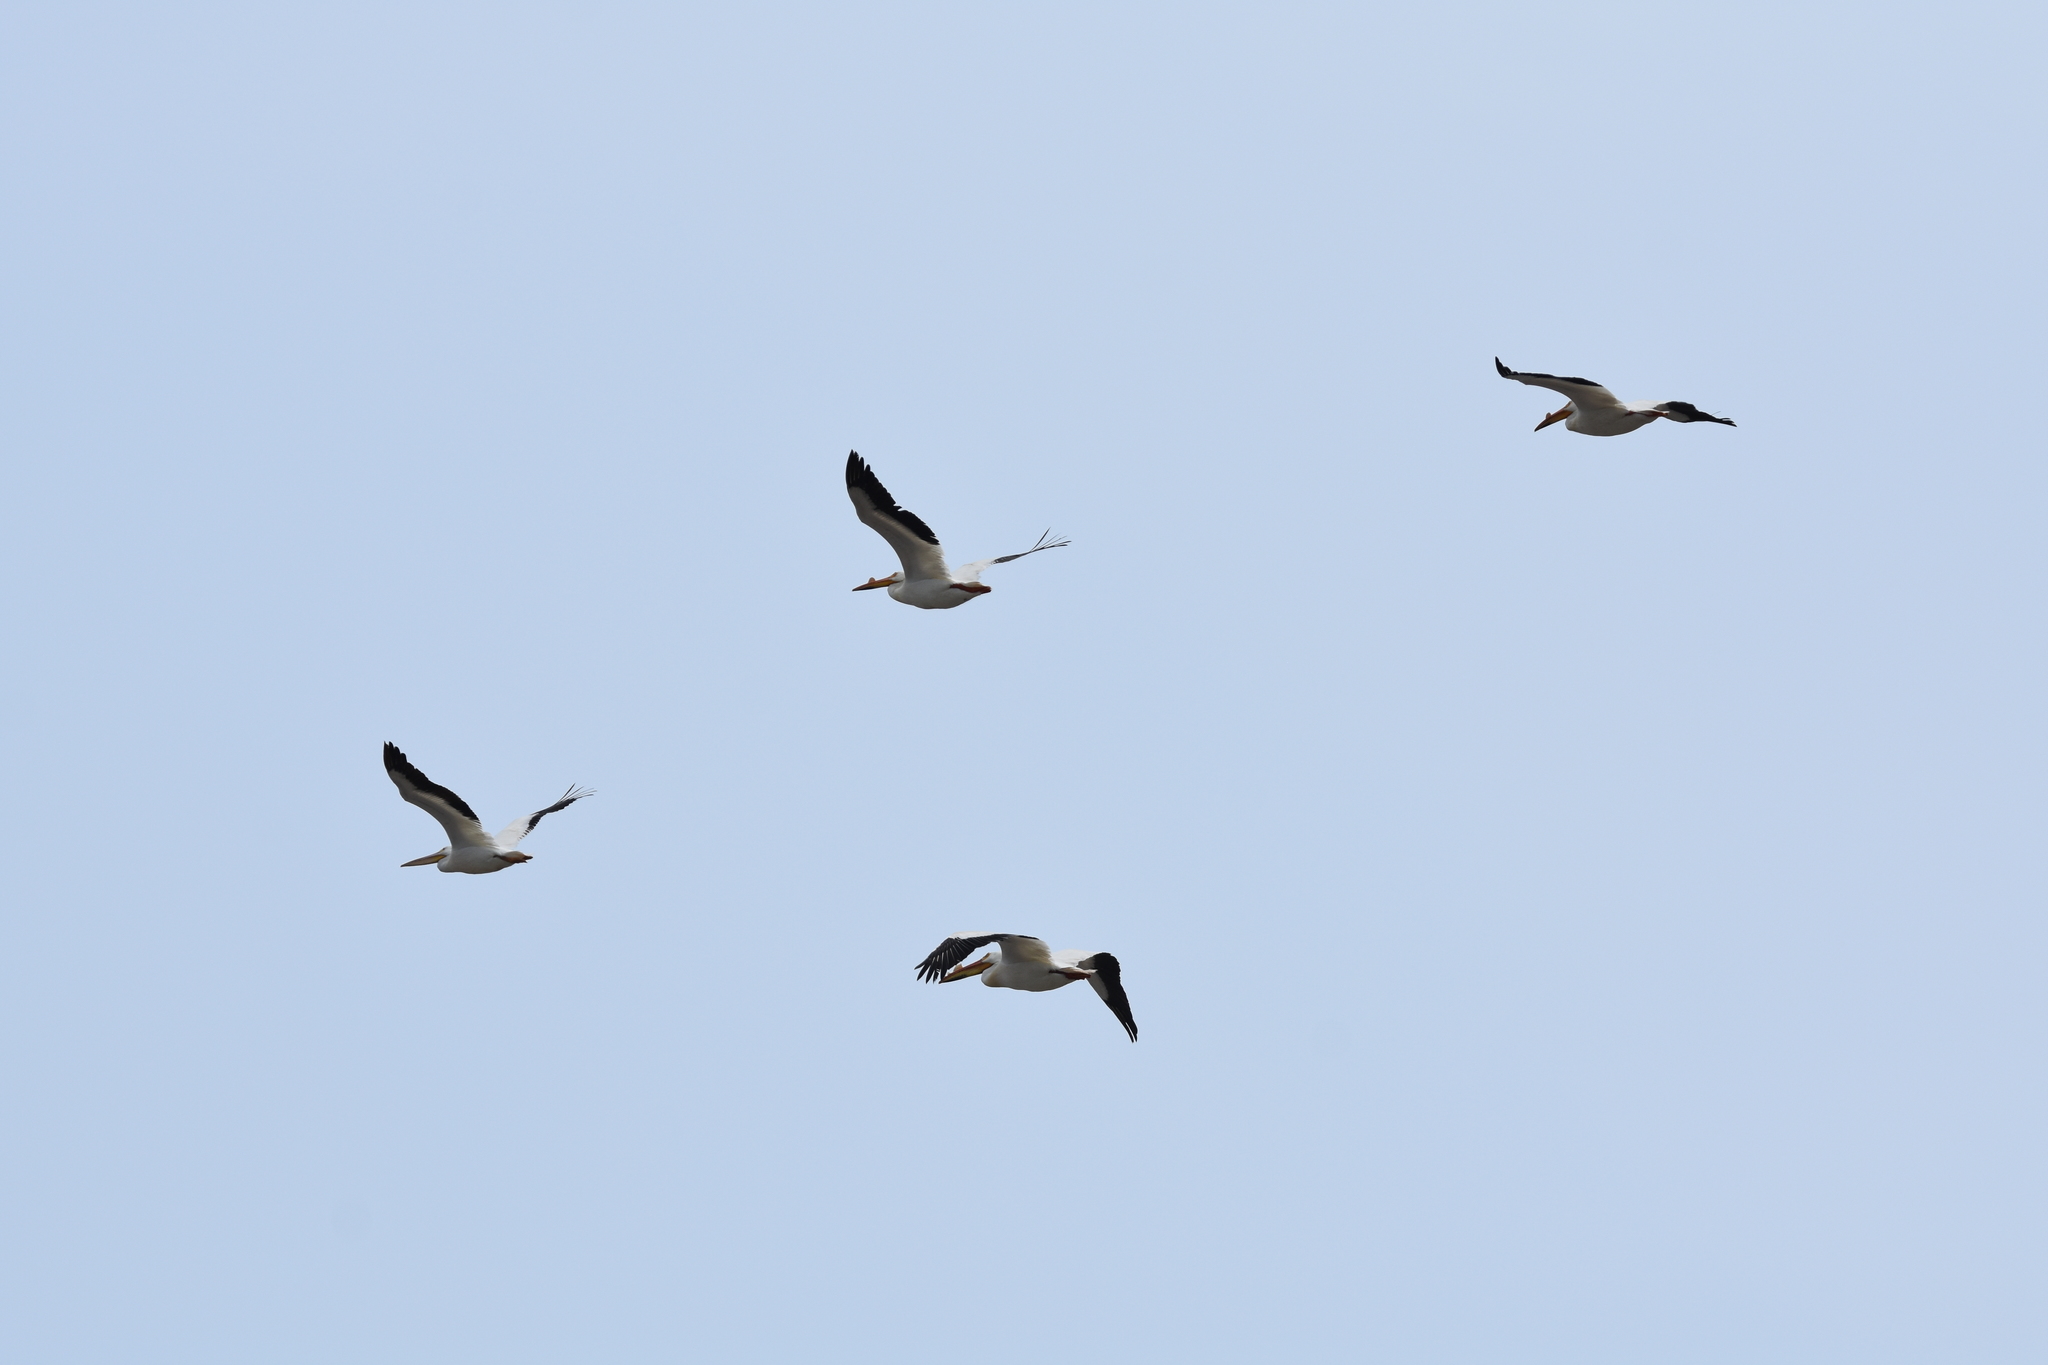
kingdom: Animalia
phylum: Chordata
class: Aves
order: Pelecaniformes
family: Pelecanidae
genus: Pelecanus
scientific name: Pelecanus erythrorhynchos
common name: American white pelican
